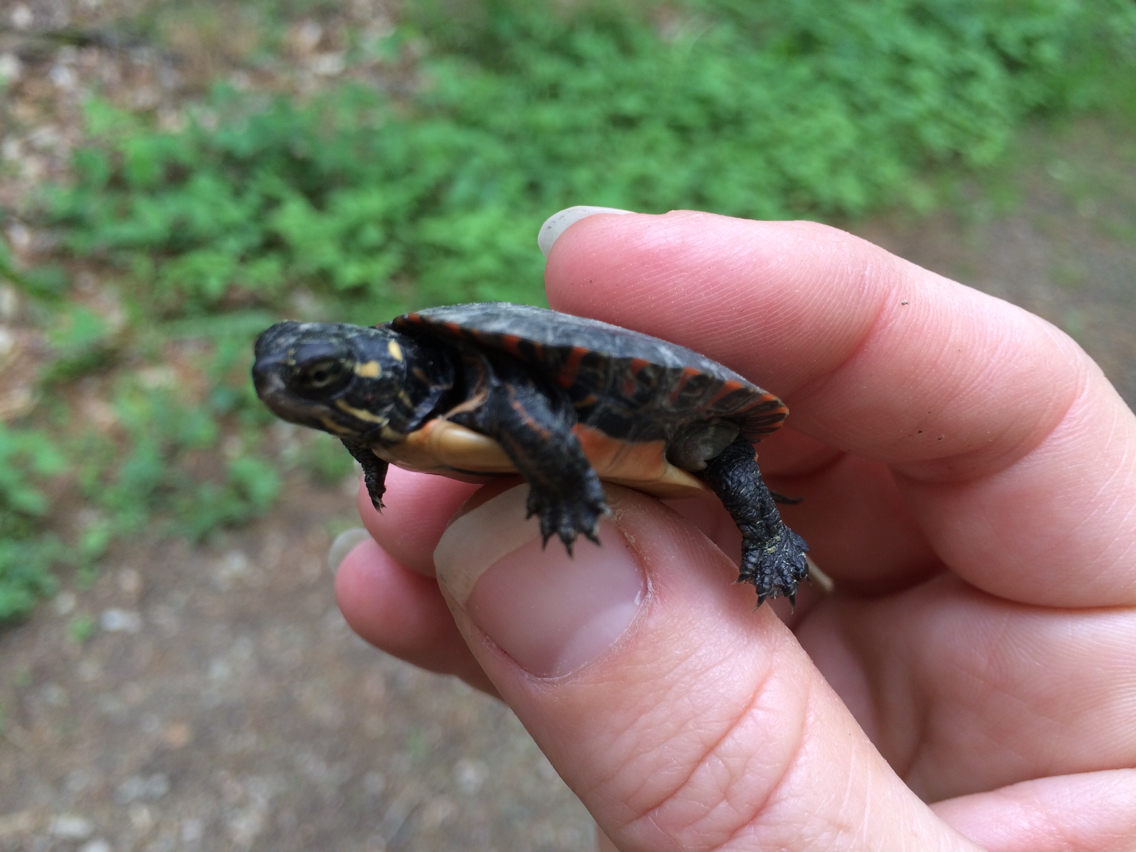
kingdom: Animalia
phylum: Chordata
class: Testudines
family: Emydidae
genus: Chrysemys
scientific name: Chrysemys picta
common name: Painted turtle
